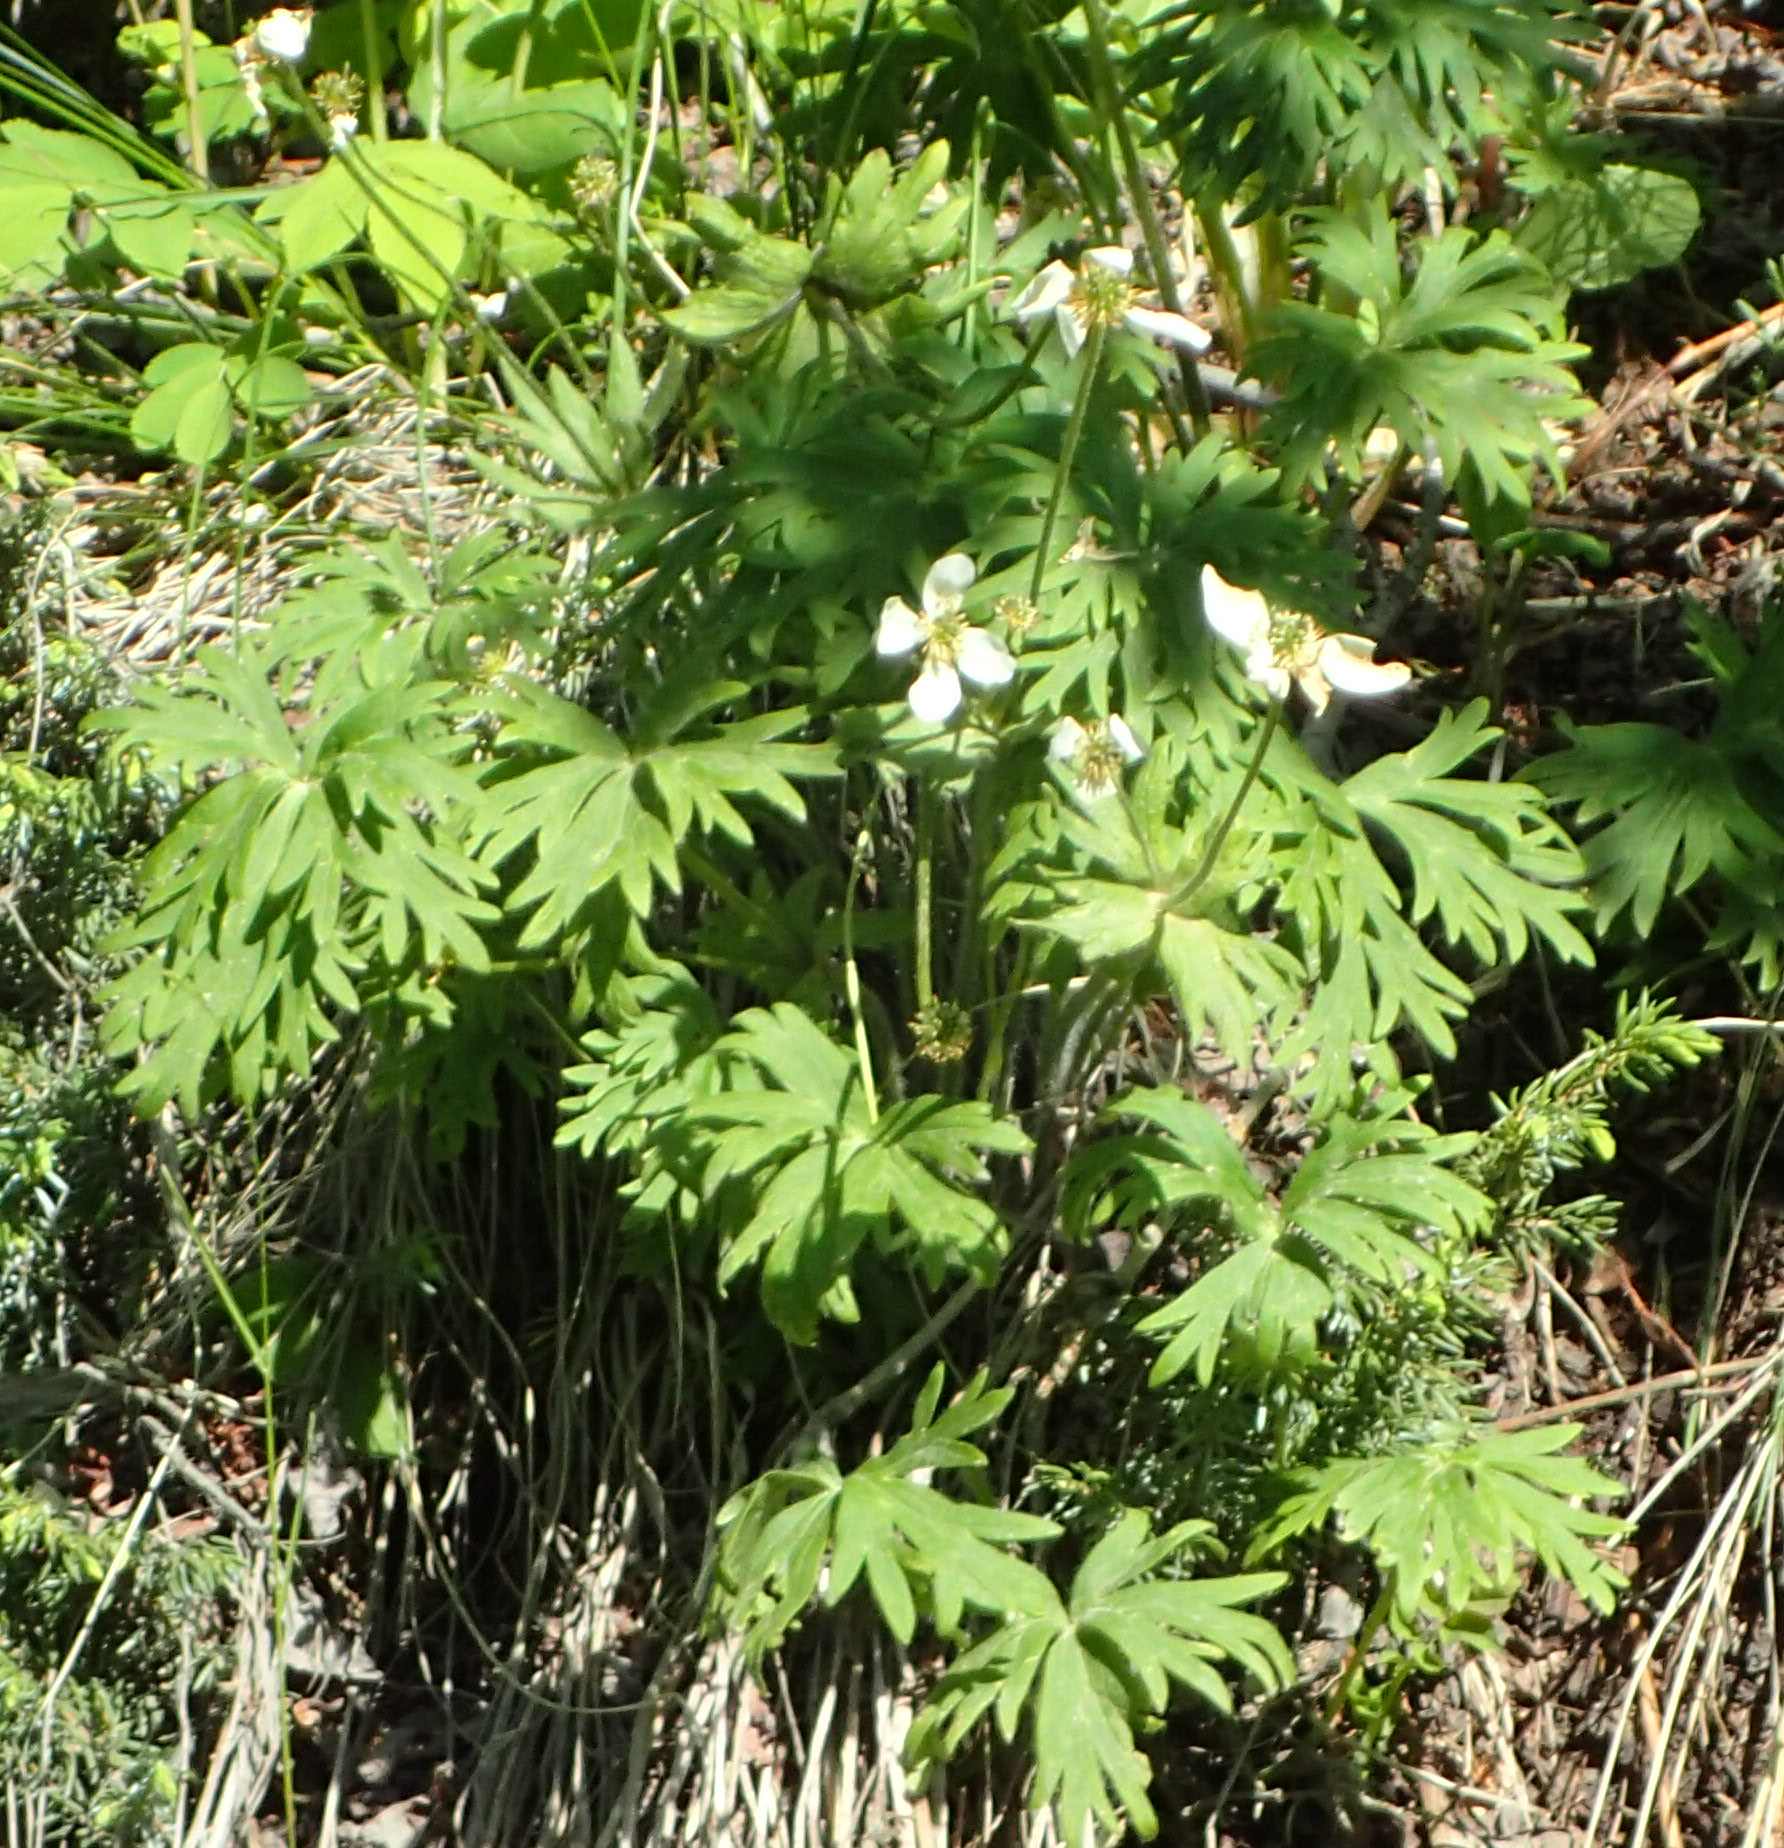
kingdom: Plantae
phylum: Tracheophyta
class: Magnoliopsida
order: Ranunculales
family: Ranunculaceae
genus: Anemonastrum
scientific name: Anemonastrum narcissiflorum
